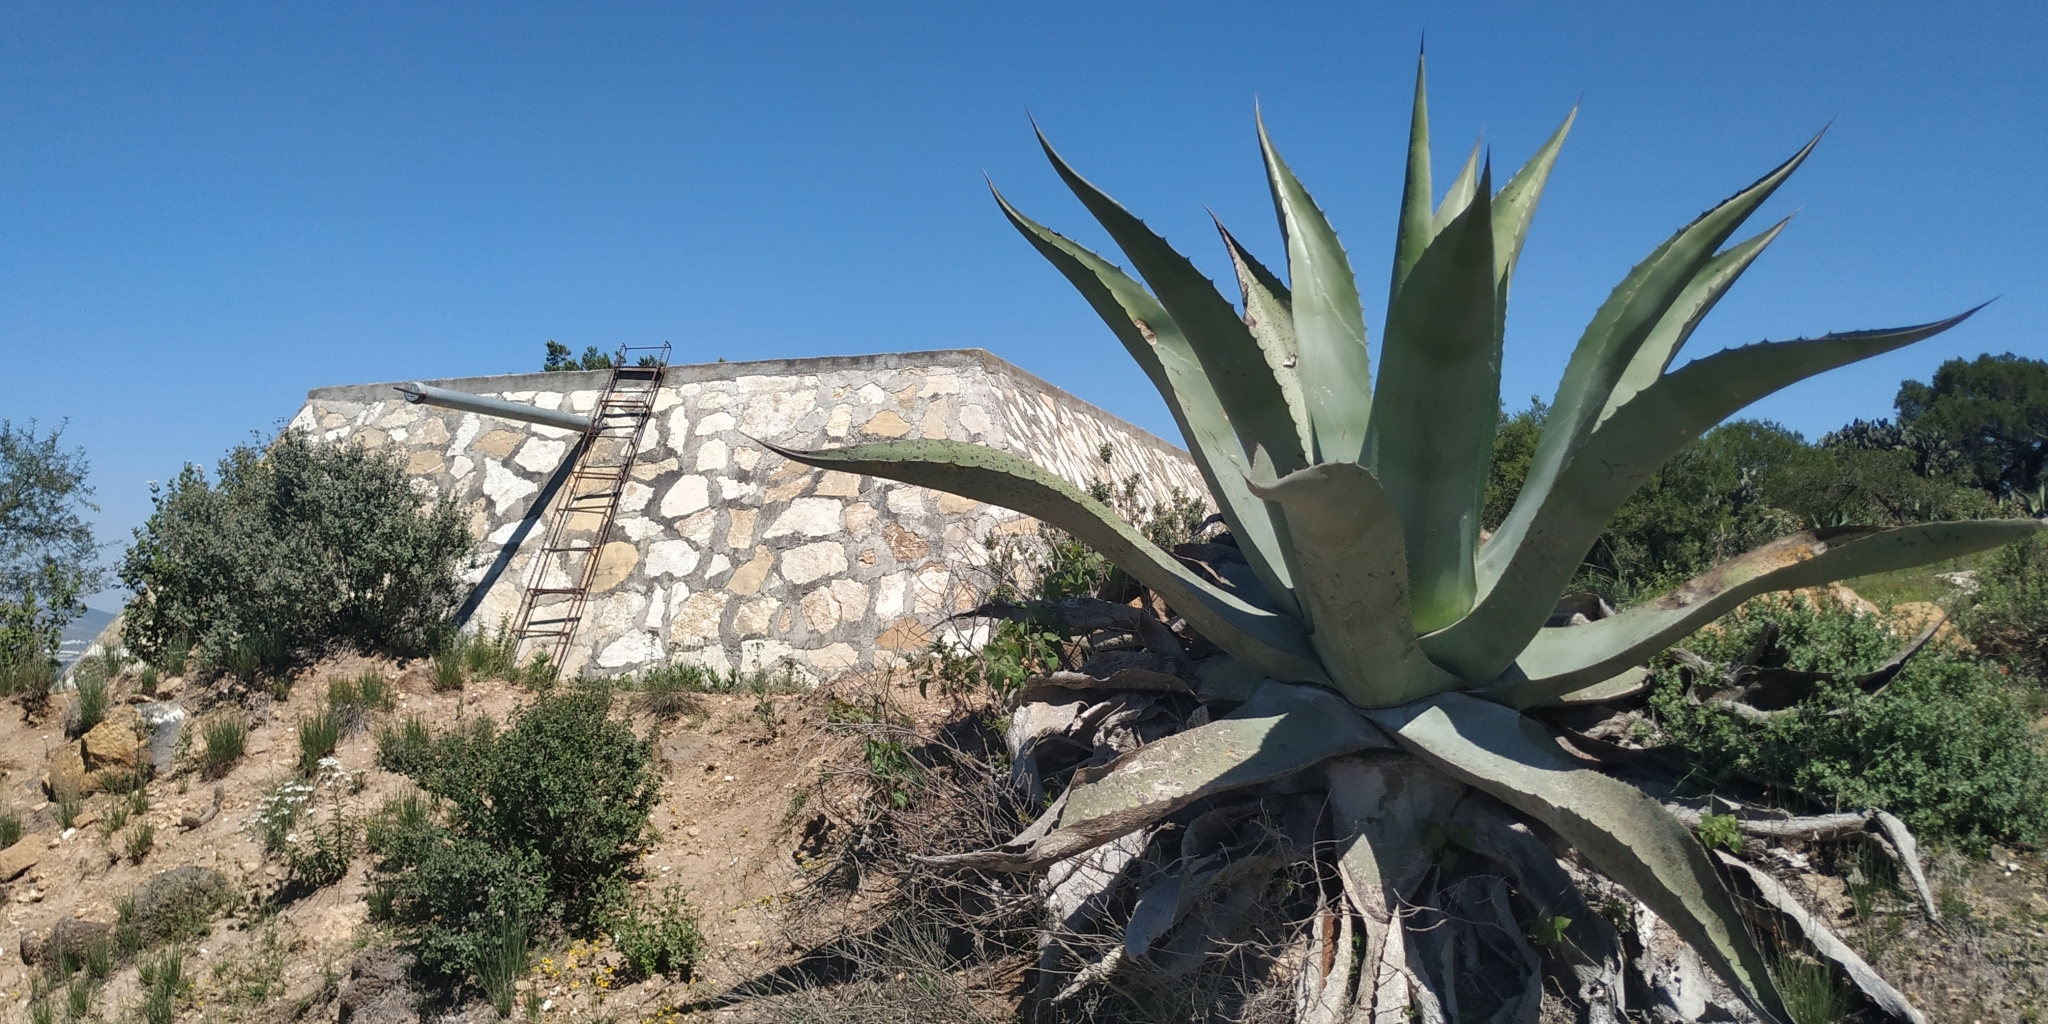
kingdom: Plantae
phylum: Tracheophyta
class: Liliopsida
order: Asparagales
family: Asparagaceae
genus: Agave
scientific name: Agave salmiana
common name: Pulque agave
